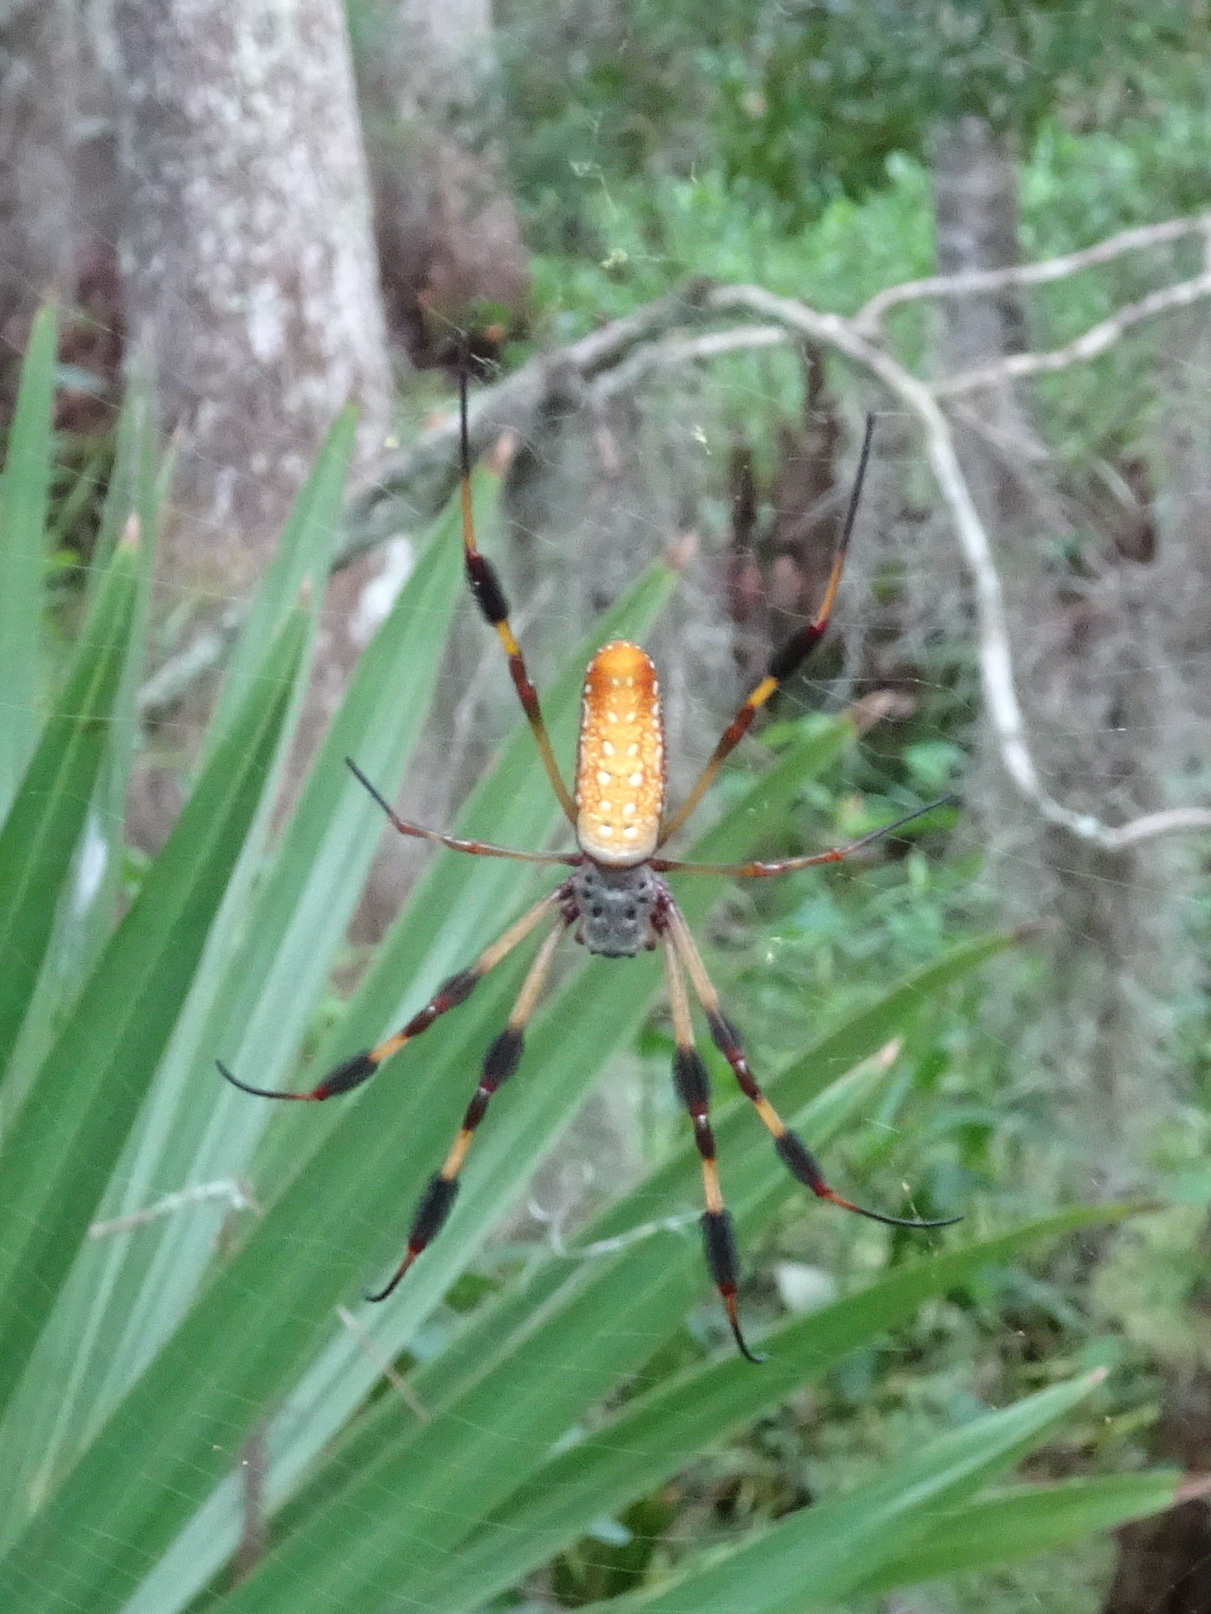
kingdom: Animalia
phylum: Arthropoda
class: Arachnida
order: Araneae
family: Araneidae
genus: Trichonephila
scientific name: Trichonephila clavipes
